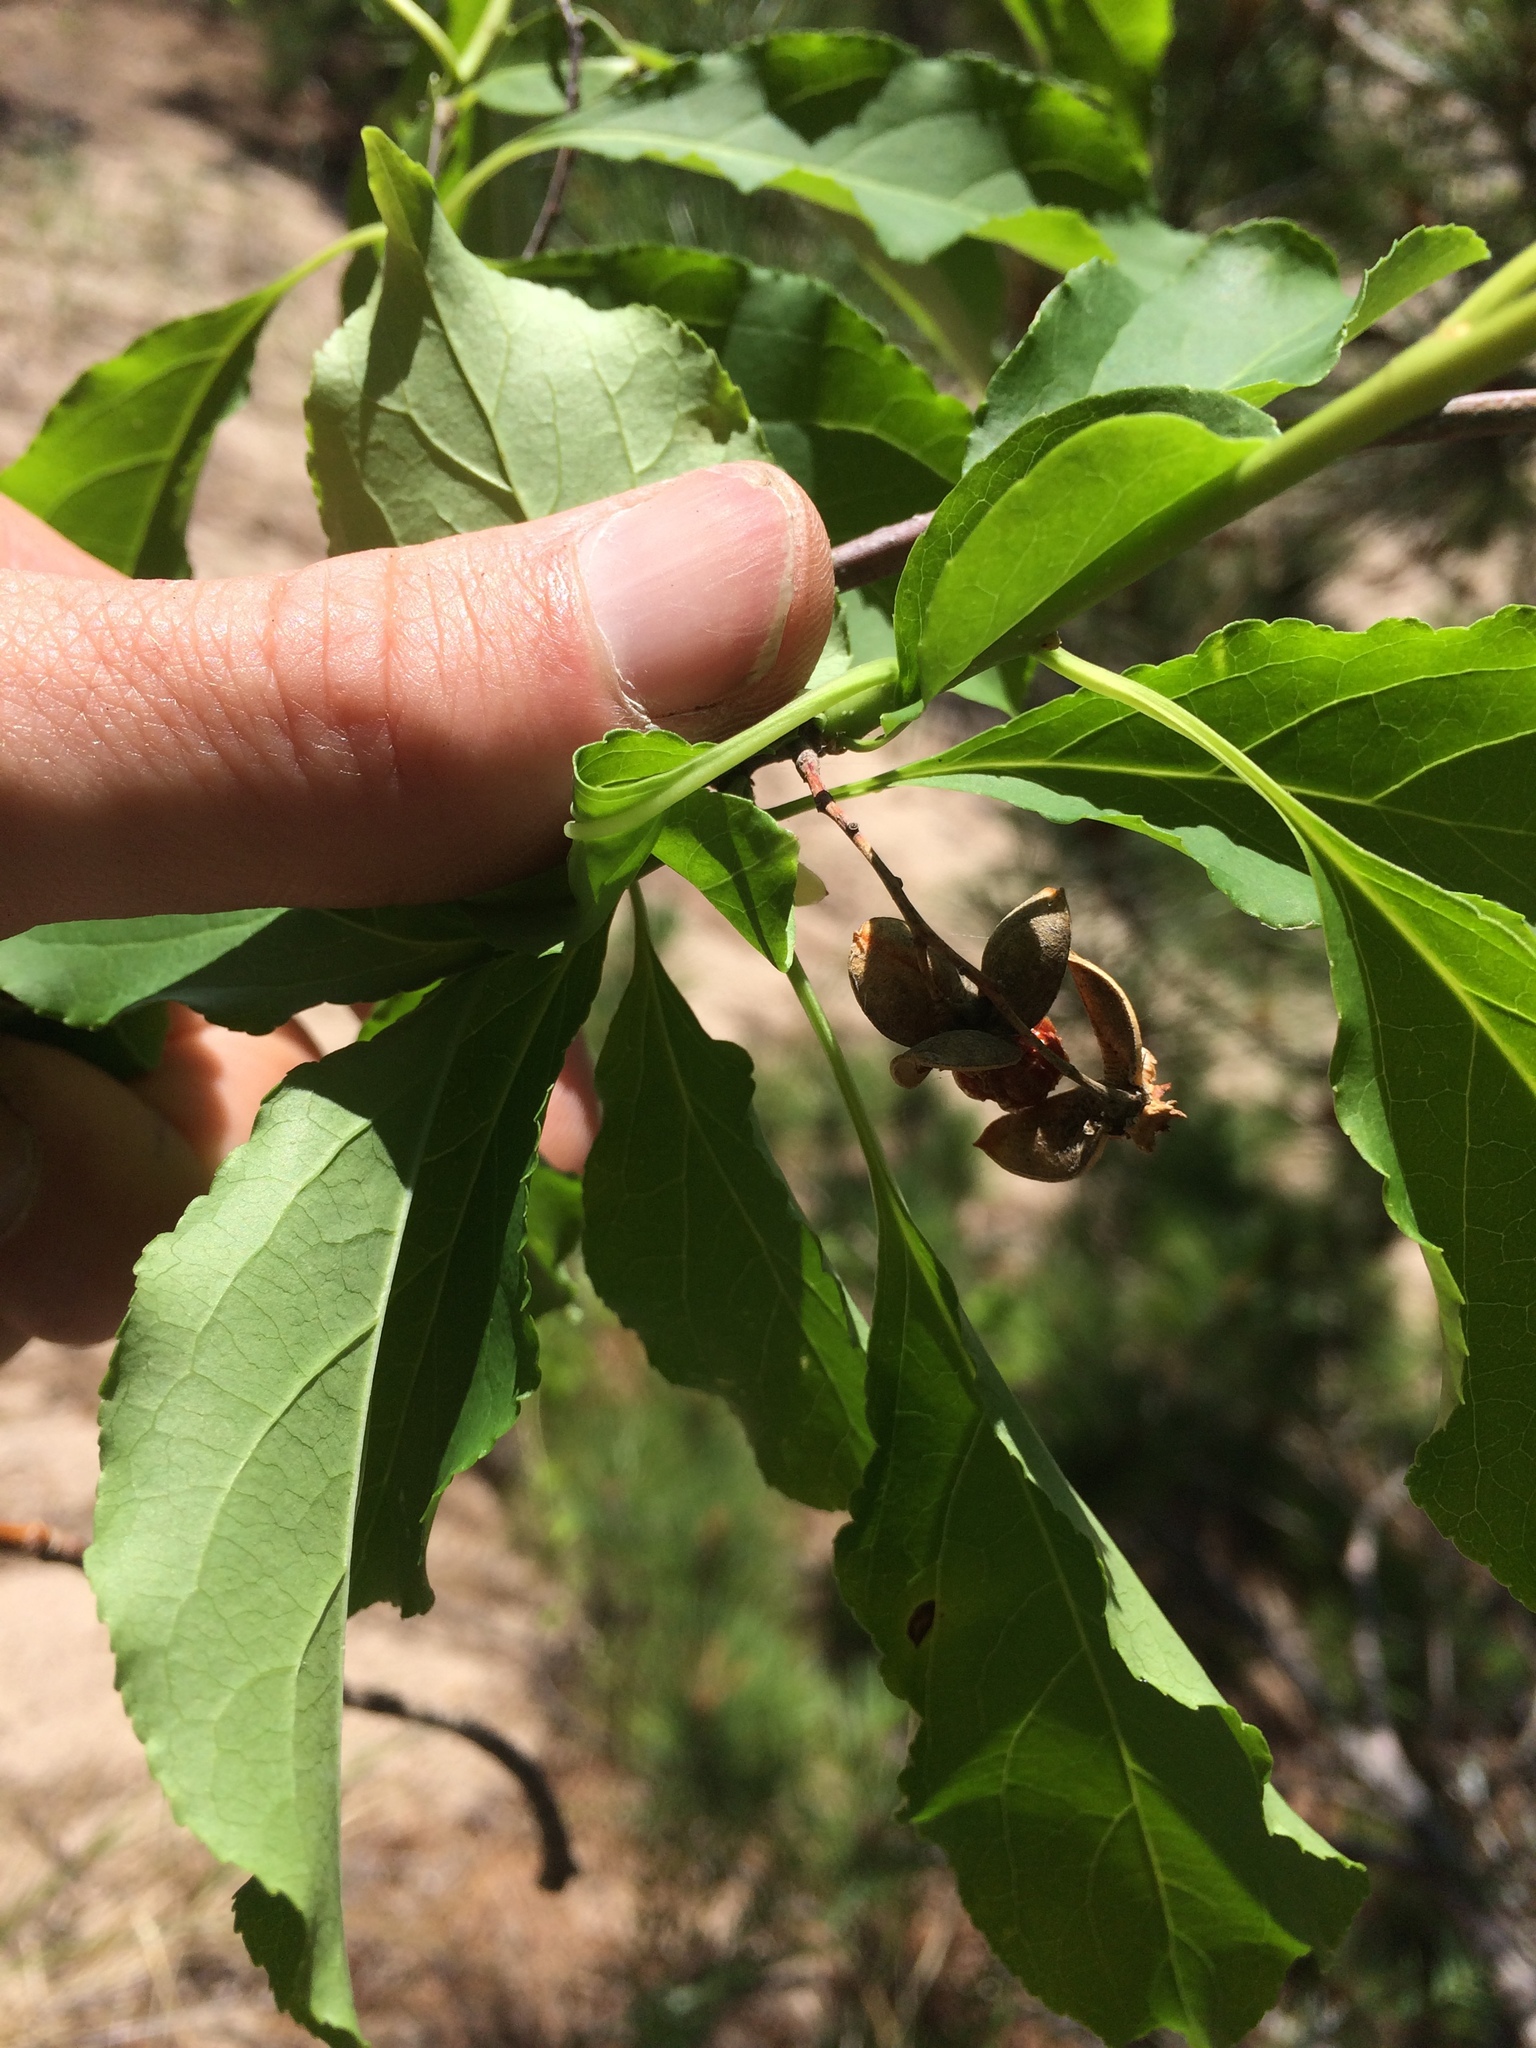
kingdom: Plantae
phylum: Tracheophyta
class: Magnoliopsida
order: Celastrales
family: Celastraceae
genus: Celastrus
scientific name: Celastrus scandens
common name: American bittersweet
